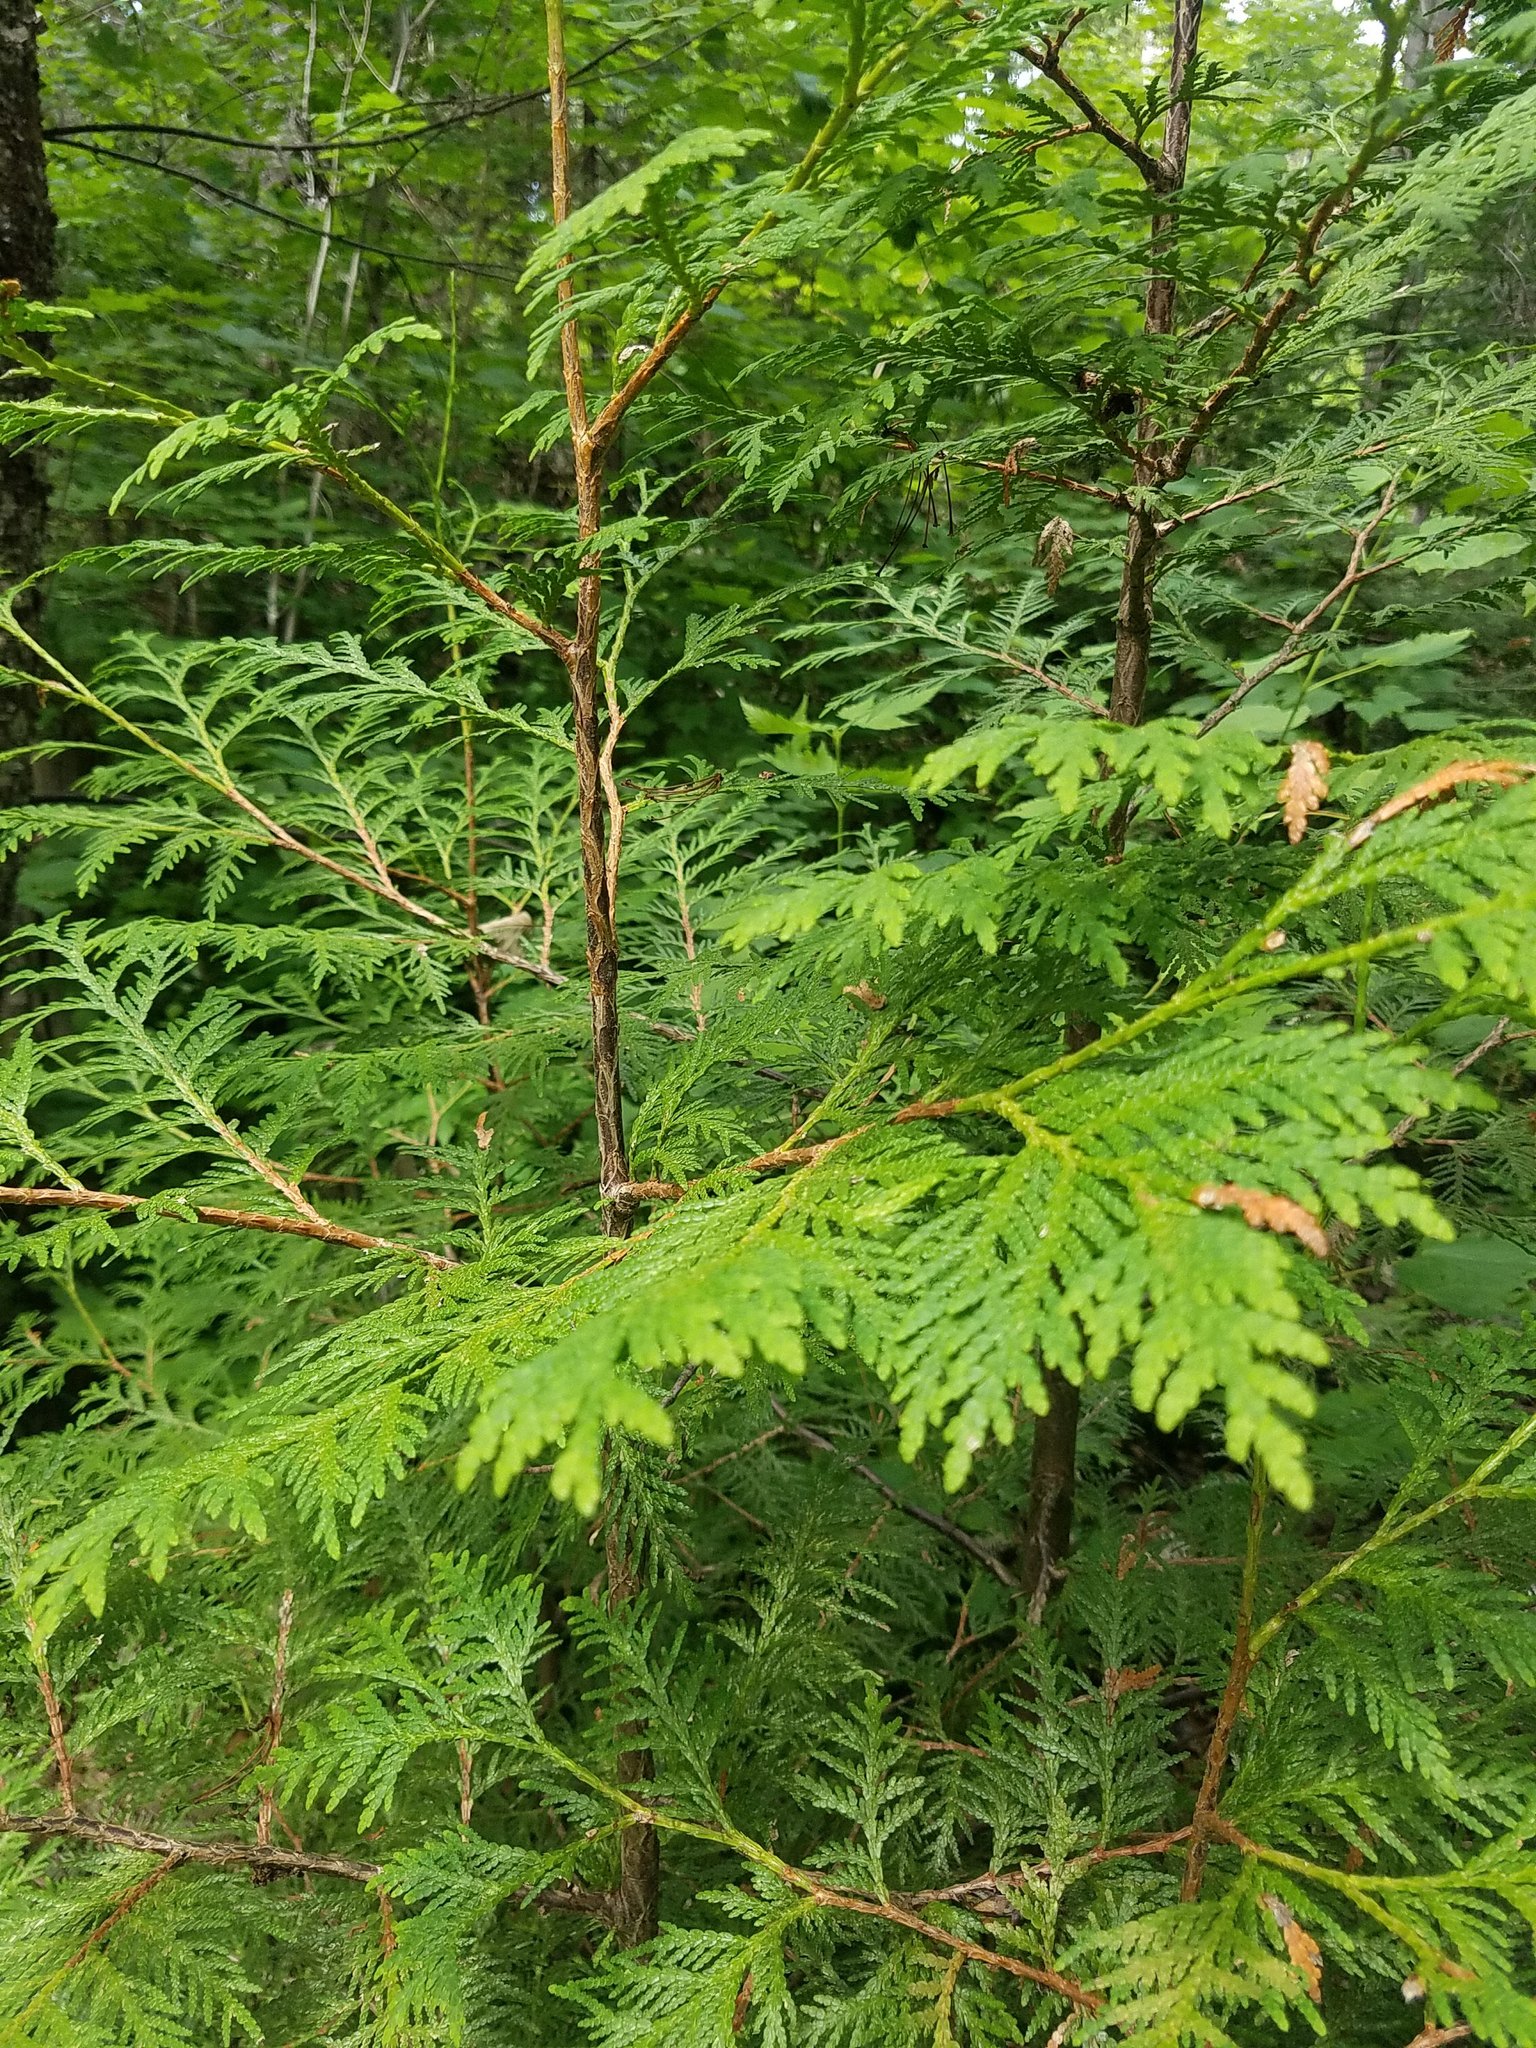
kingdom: Plantae
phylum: Tracheophyta
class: Pinopsida
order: Pinales
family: Cupressaceae
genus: Thuja
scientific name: Thuja occidentalis
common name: Northern white-cedar
